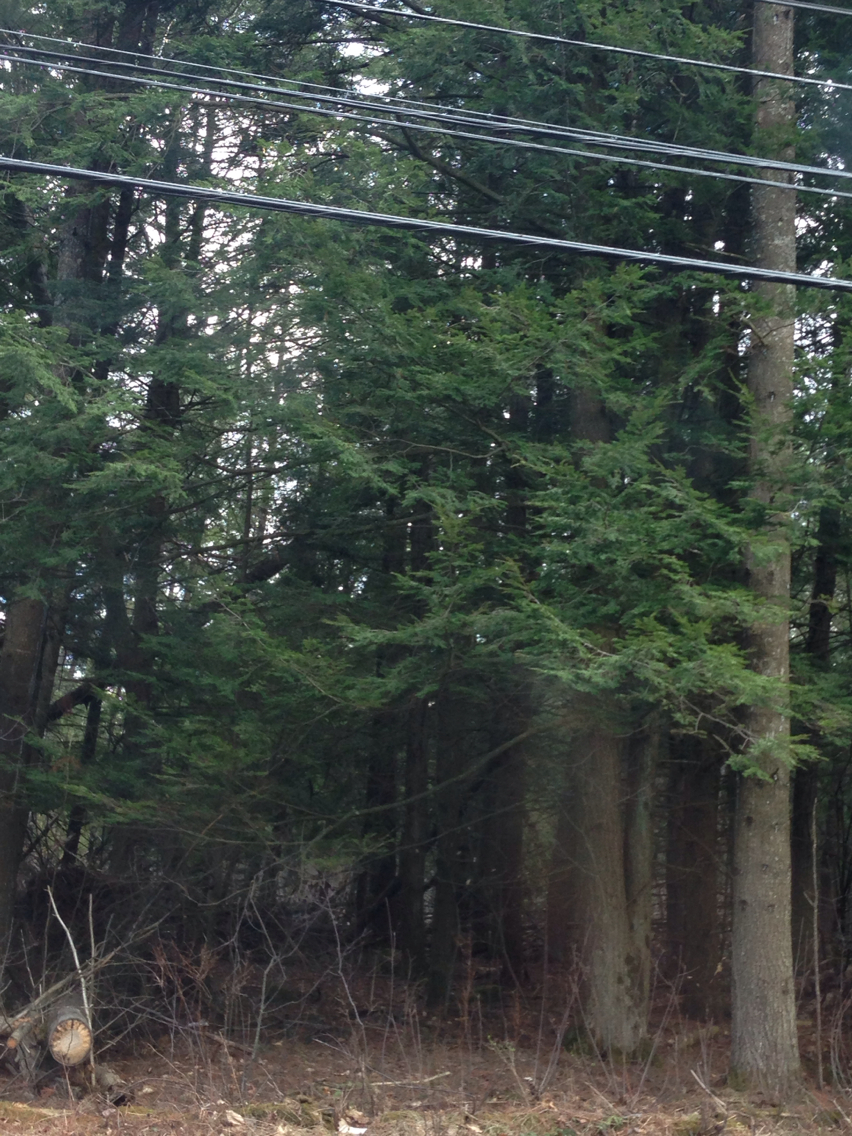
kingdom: Plantae
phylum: Tracheophyta
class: Pinopsida
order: Pinales
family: Pinaceae
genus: Tsuga
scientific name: Tsuga canadensis
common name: Eastern hemlock
